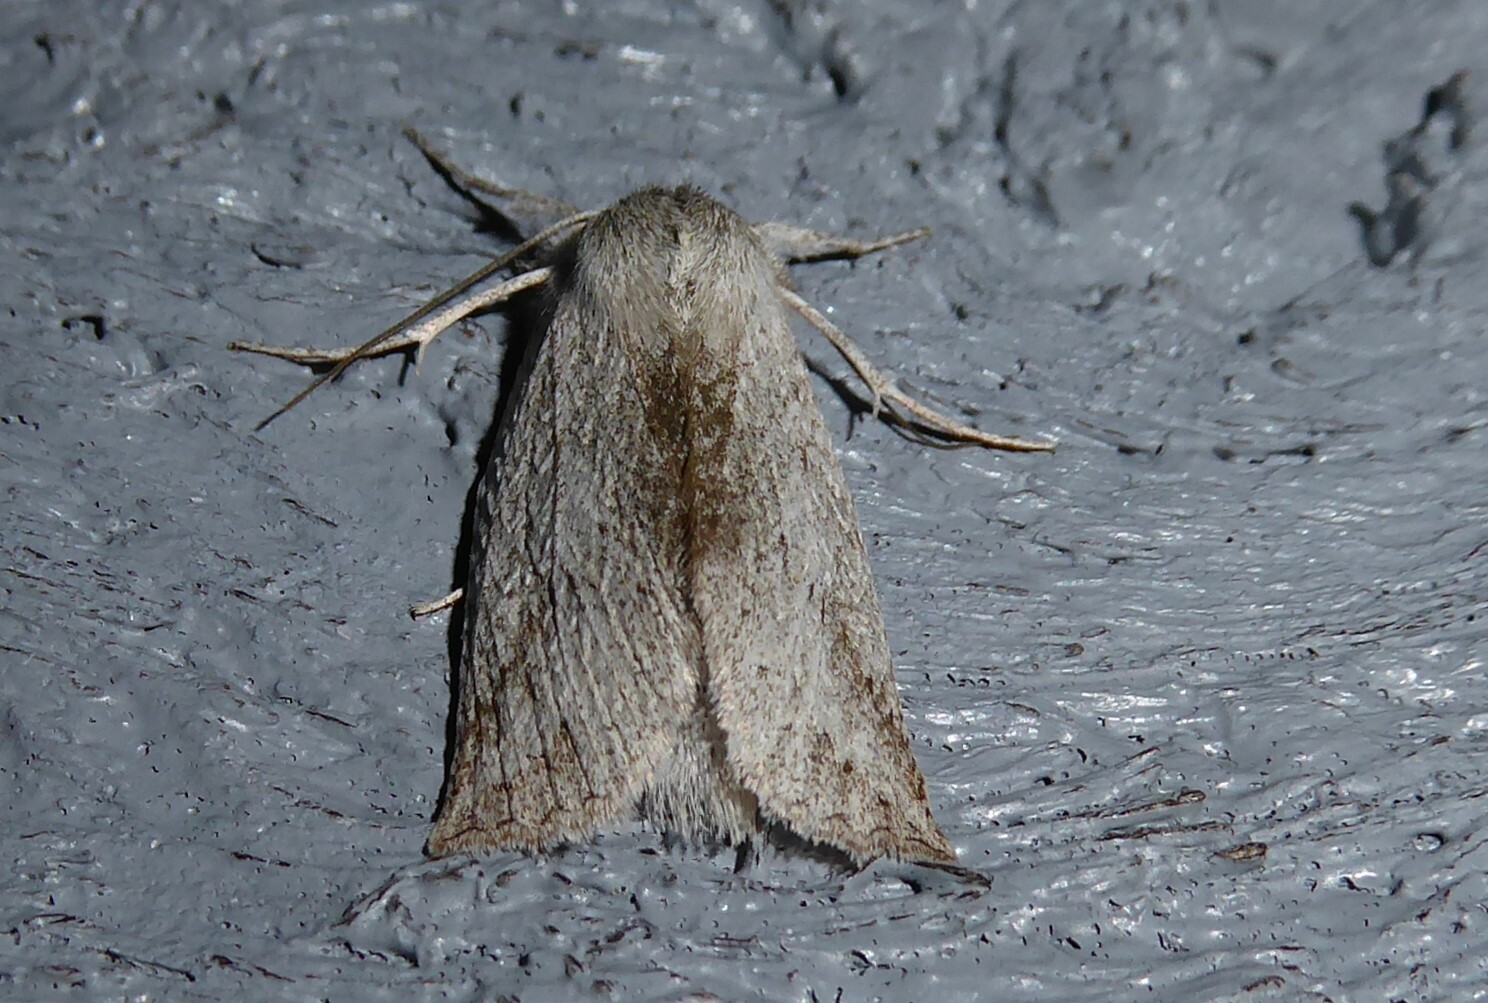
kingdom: Animalia
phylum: Arthropoda
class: Insecta
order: Lepidoptera
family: Geometridae
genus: Declana
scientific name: Declana leptomera
